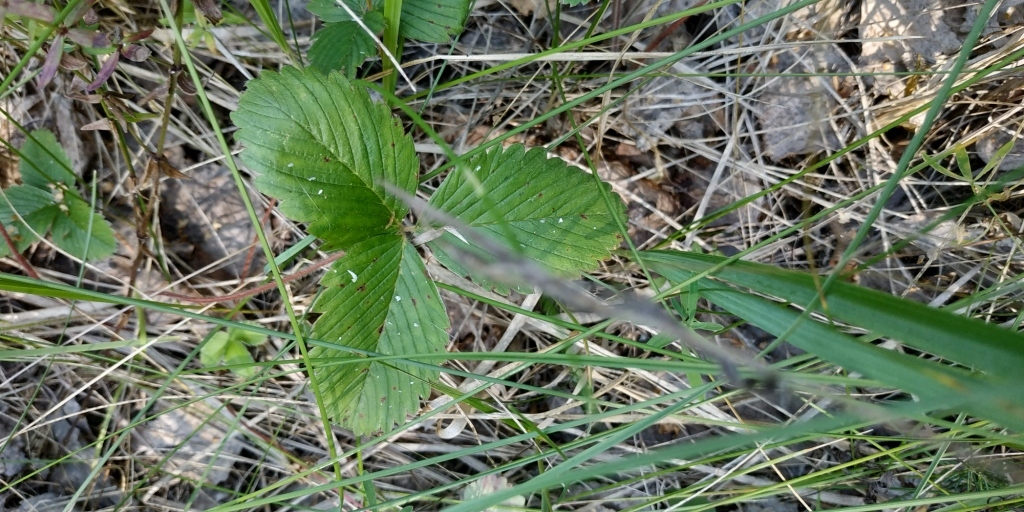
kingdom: Plantae
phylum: Tracheophyta
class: Magnoliopsida
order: Rosales
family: Rosaceae
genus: Fragaria
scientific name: Fragaria viridis
